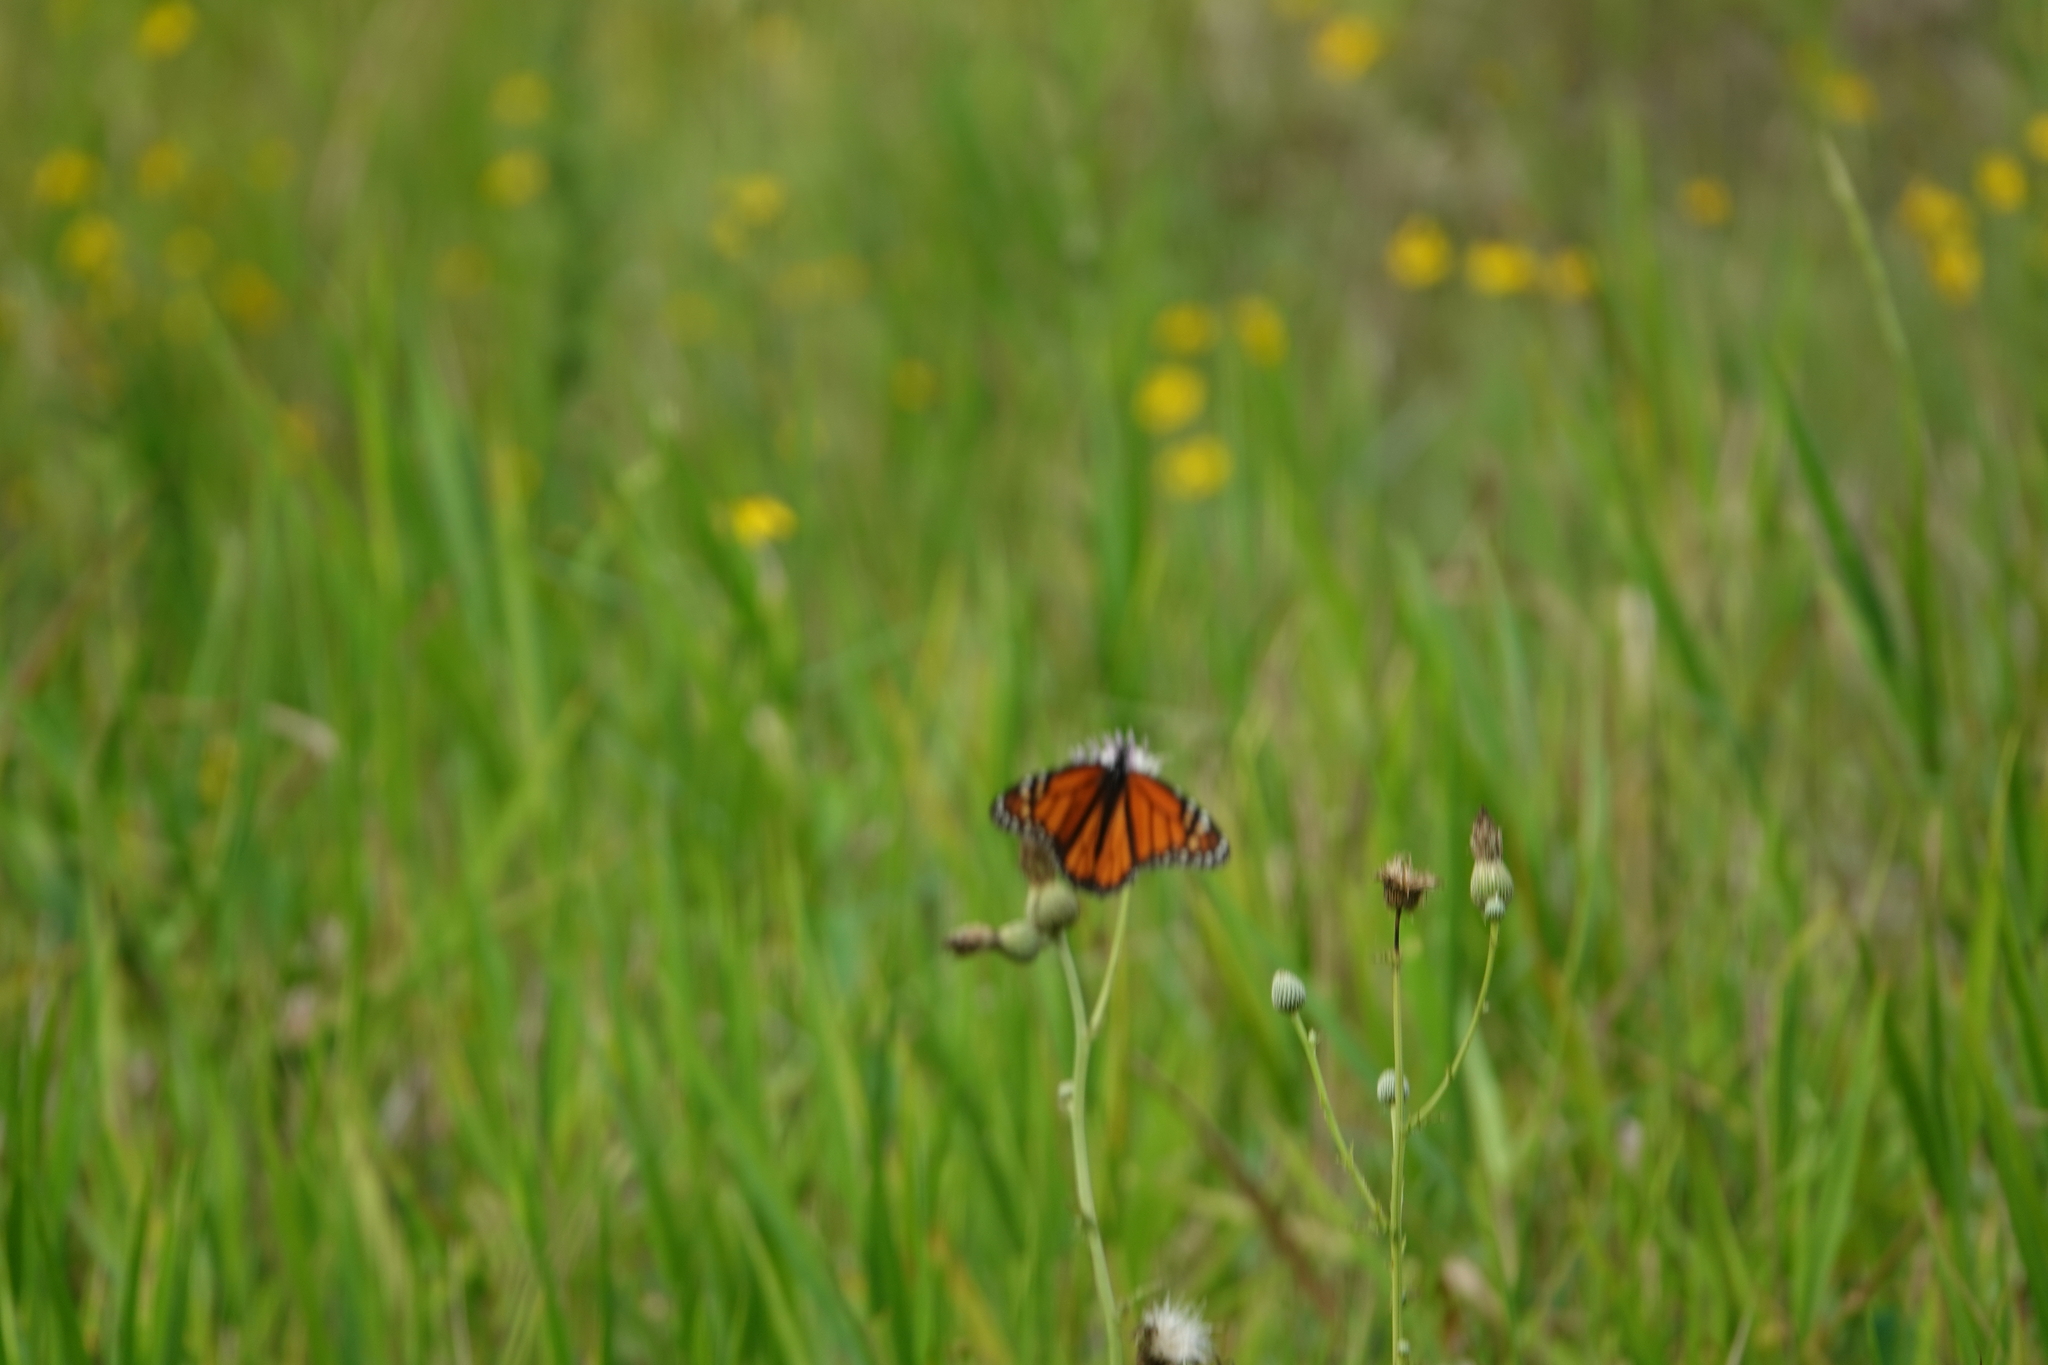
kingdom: Animalia
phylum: Arthropoda
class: Insecta
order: Lepidoptera
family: Nymphalidae
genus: Danaus
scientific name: Danaus plexippus
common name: Monarch
